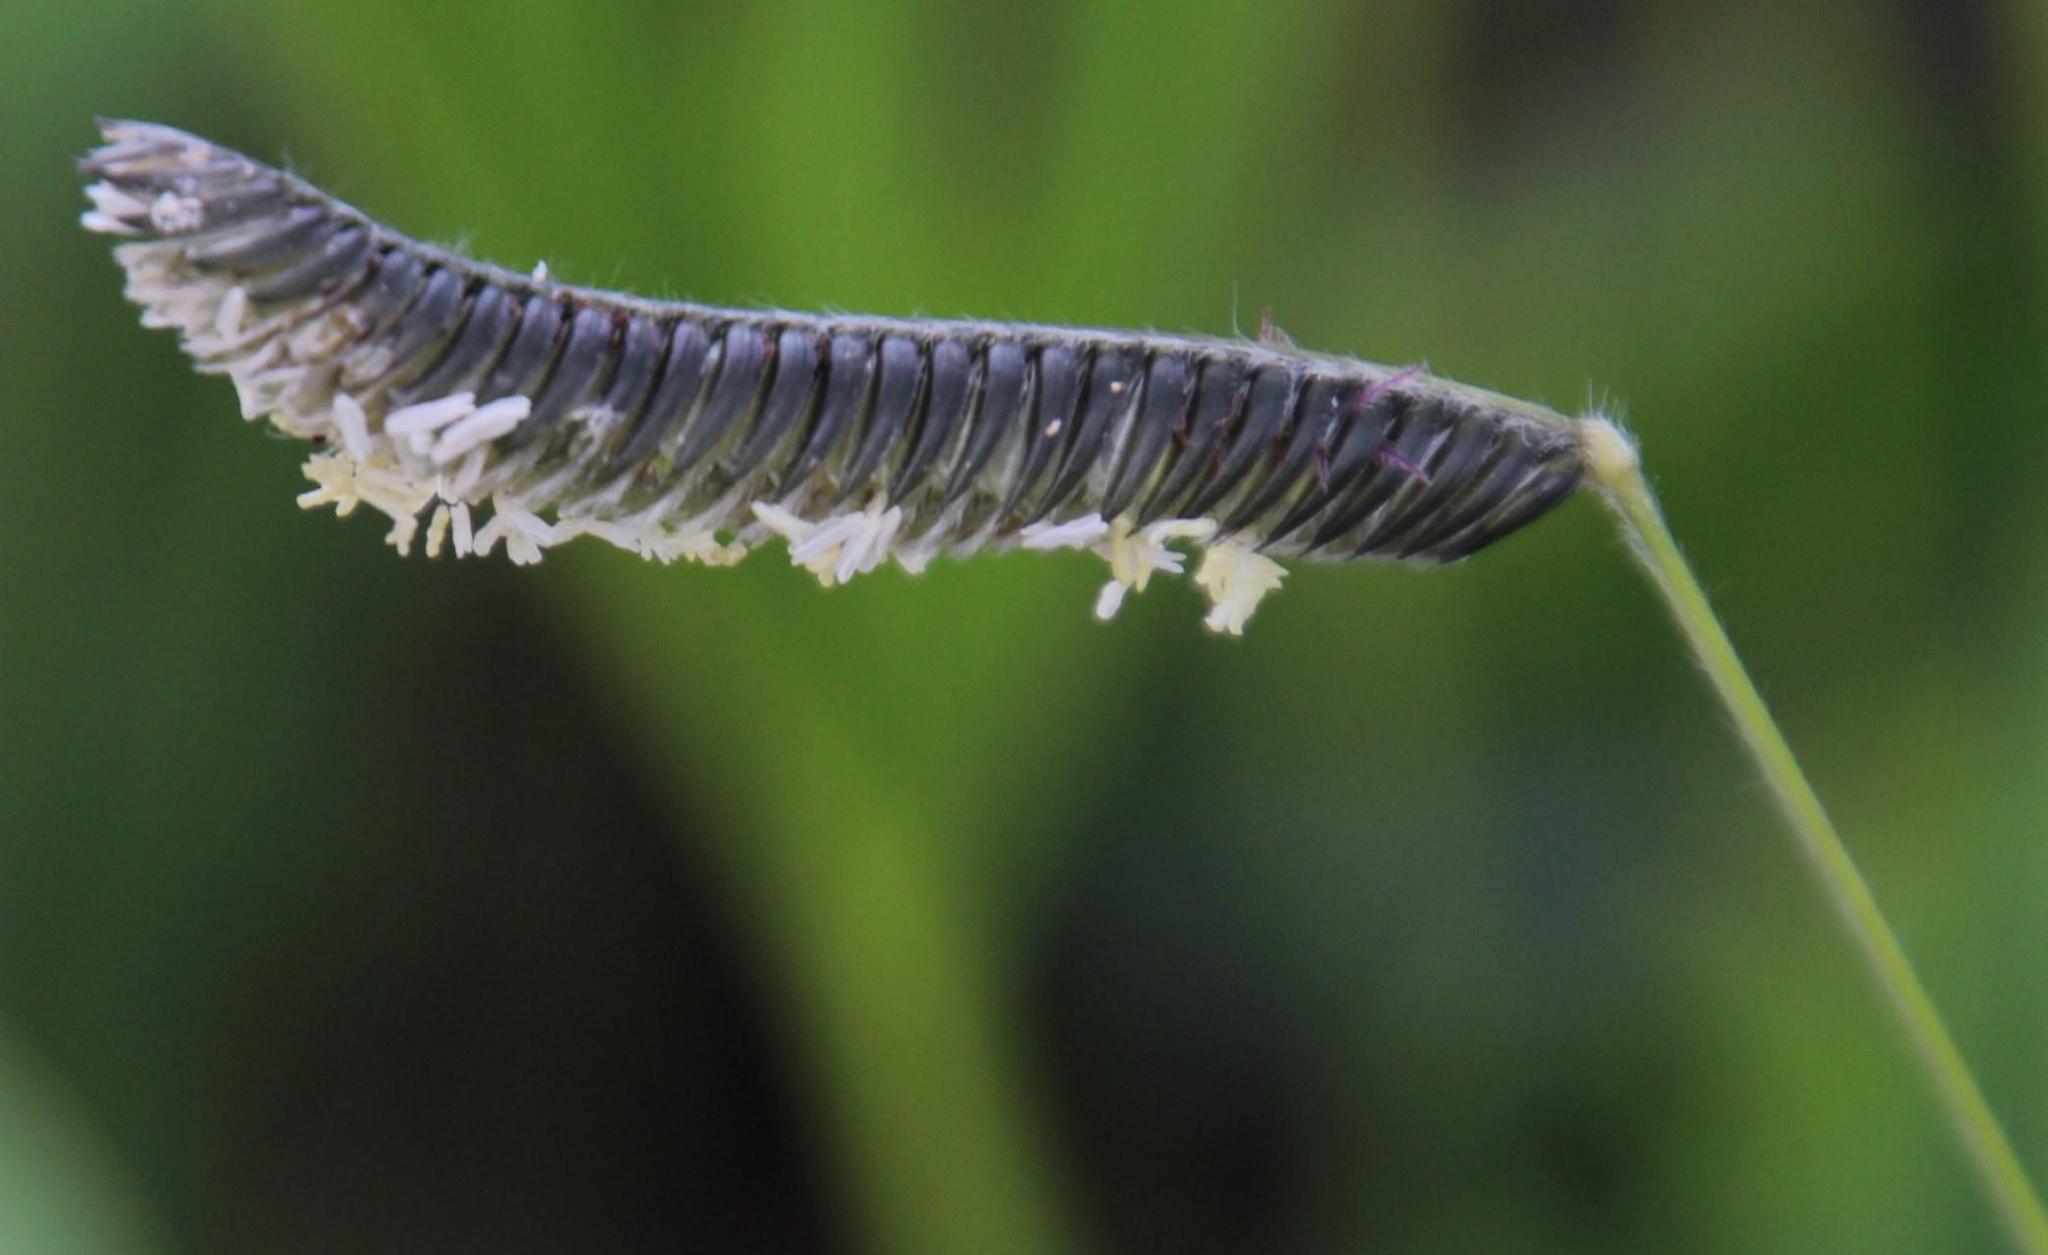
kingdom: Plantae
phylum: Tracheophyta
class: Liliopsida
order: Poales
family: Poaceae
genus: Harpochloa
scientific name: Harpochloa falx
